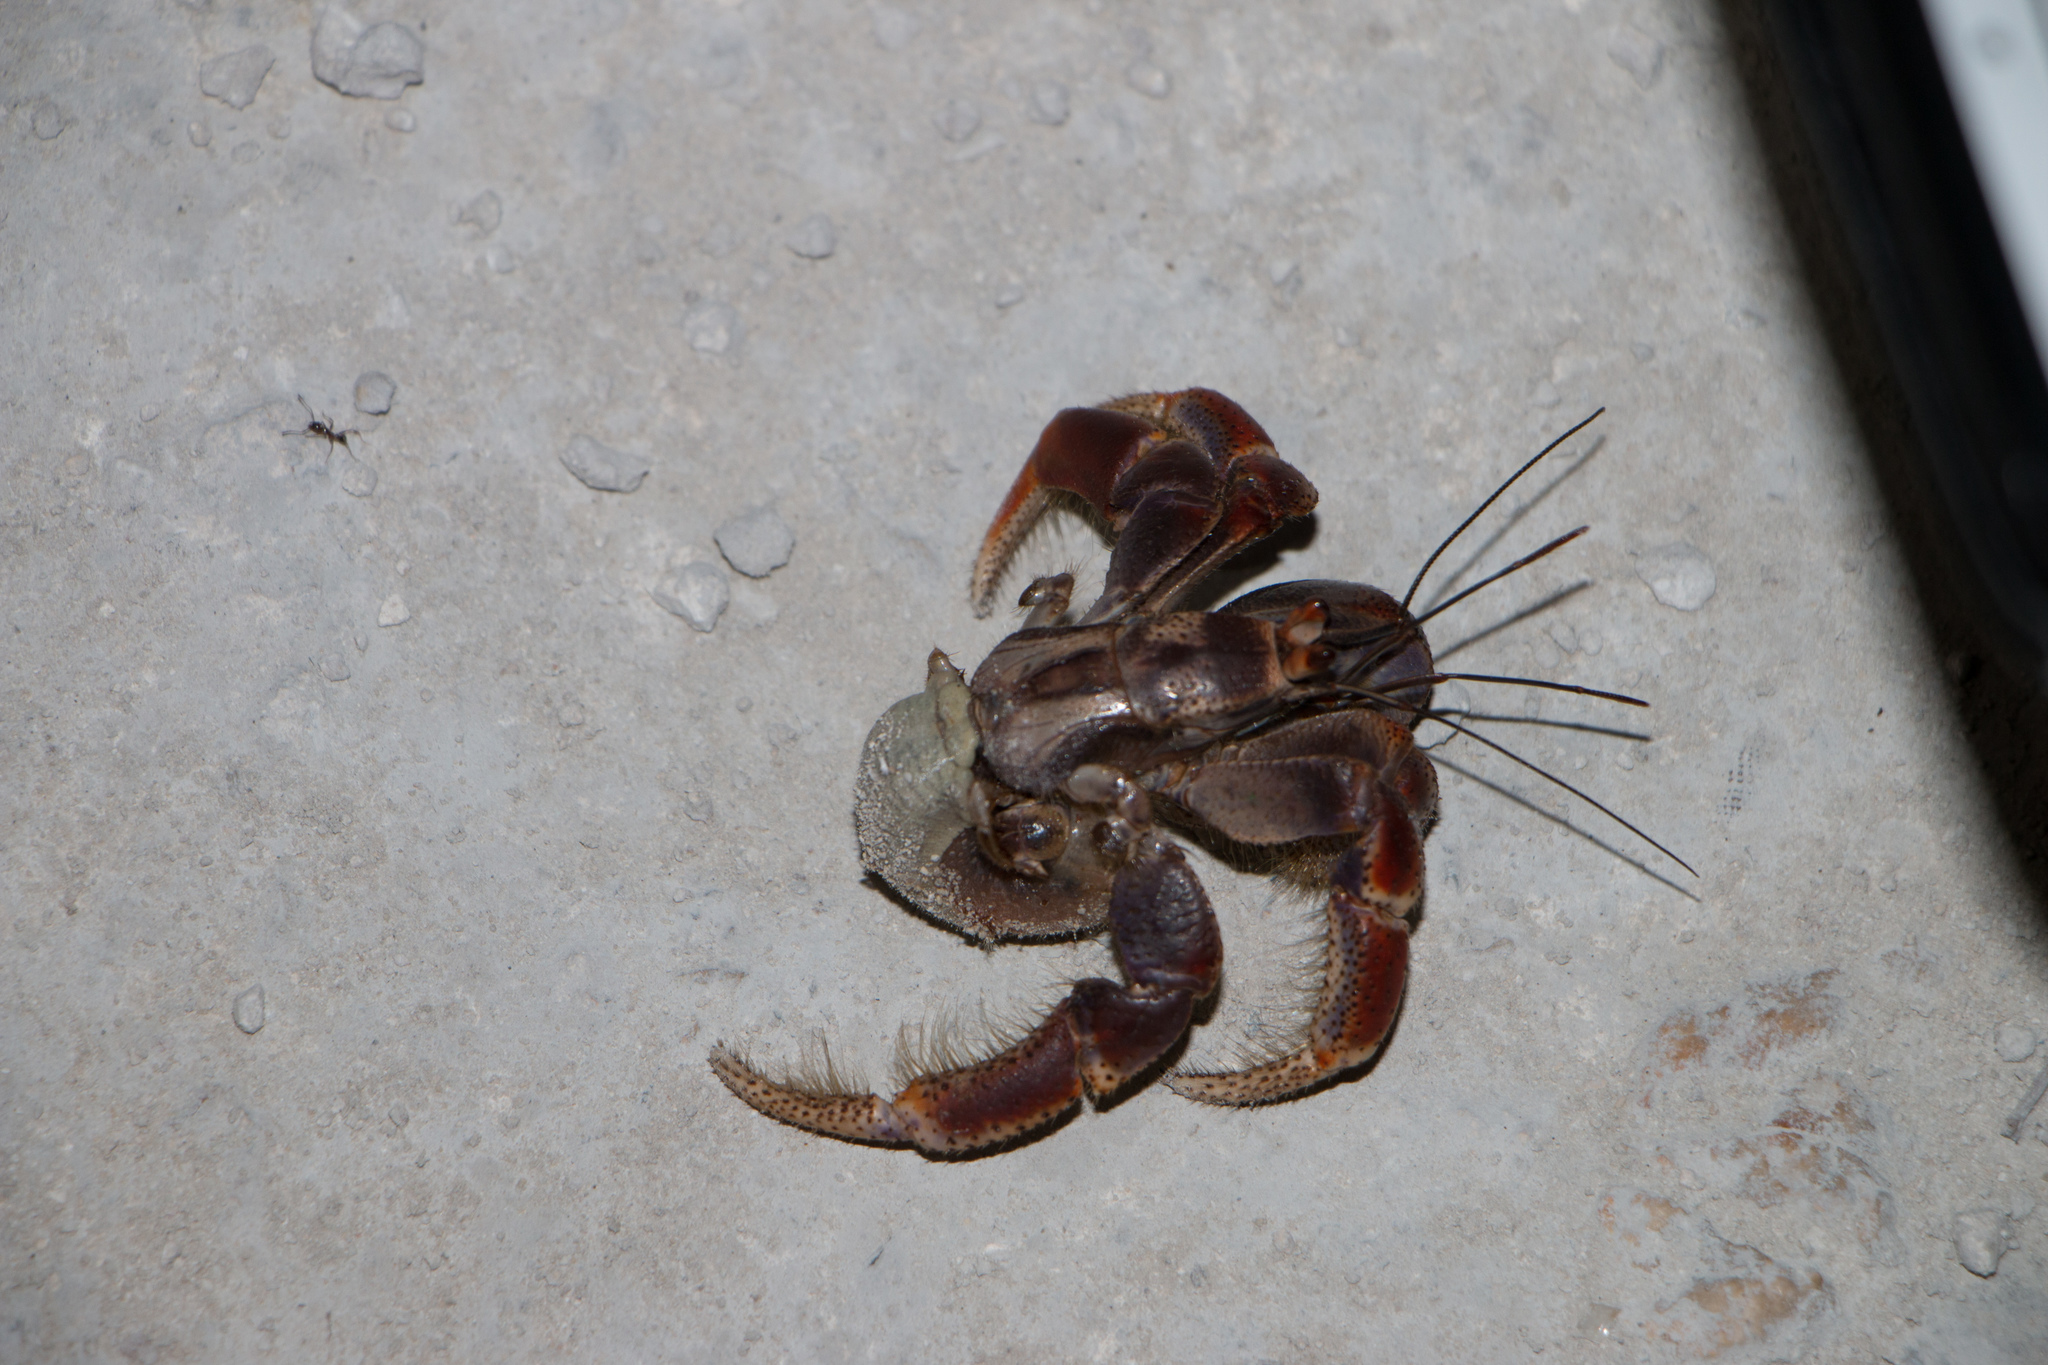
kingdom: Animalia
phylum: Arthropoda
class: Malacostraca
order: Decapoda
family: Coenobitidae
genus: Coenobita
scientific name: Coenobita clypeatus
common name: Caribbean hermit crab
